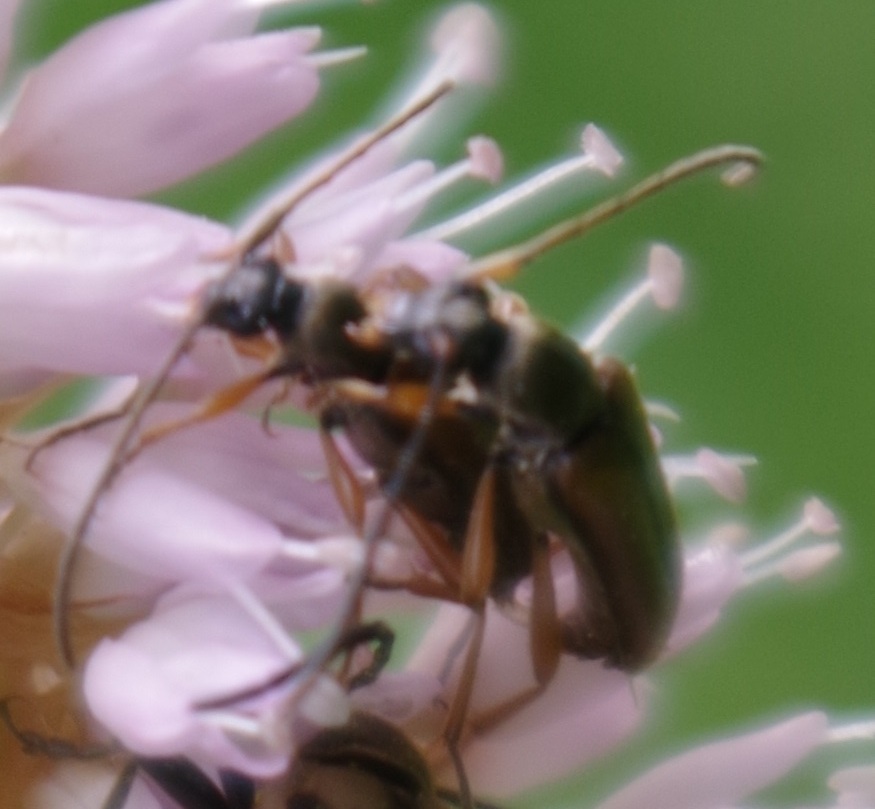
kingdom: Animalia
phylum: Arthropoda
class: Insecta
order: Coleoptera
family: Cerambycidae
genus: Alosterna
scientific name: Alosterna tabacicolor
